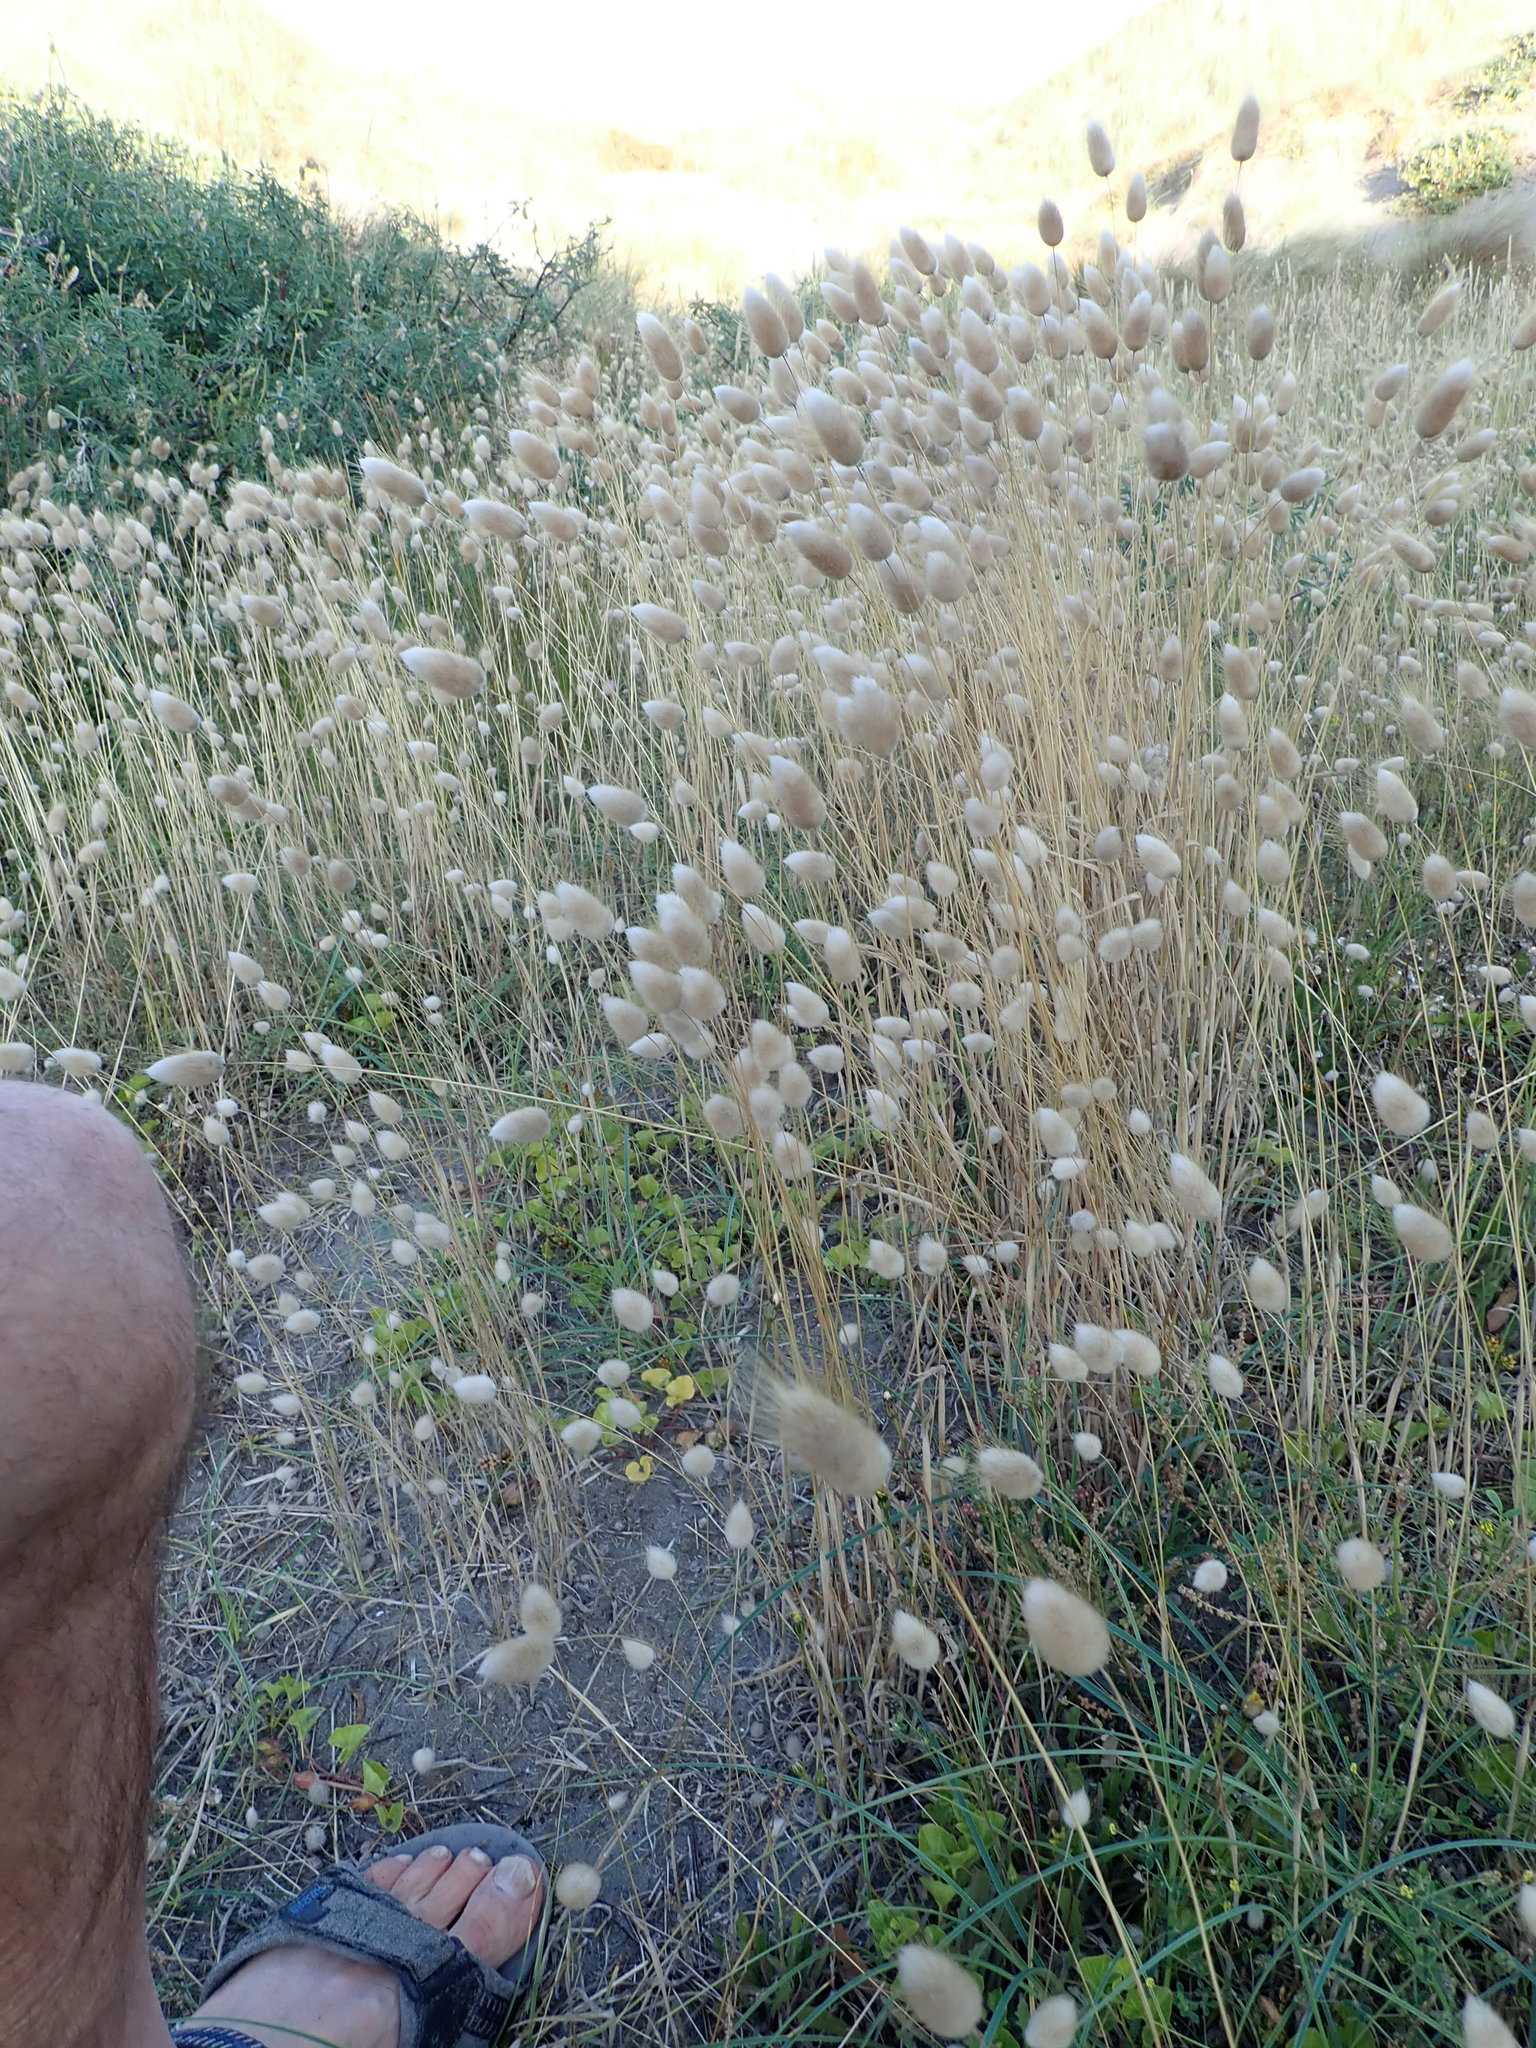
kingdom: Plantae
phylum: Tracheophyta
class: Liliopsida
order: Poales
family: Poaceae
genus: Lagurus
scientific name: Lagurus ovatus
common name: Hare's-tail
